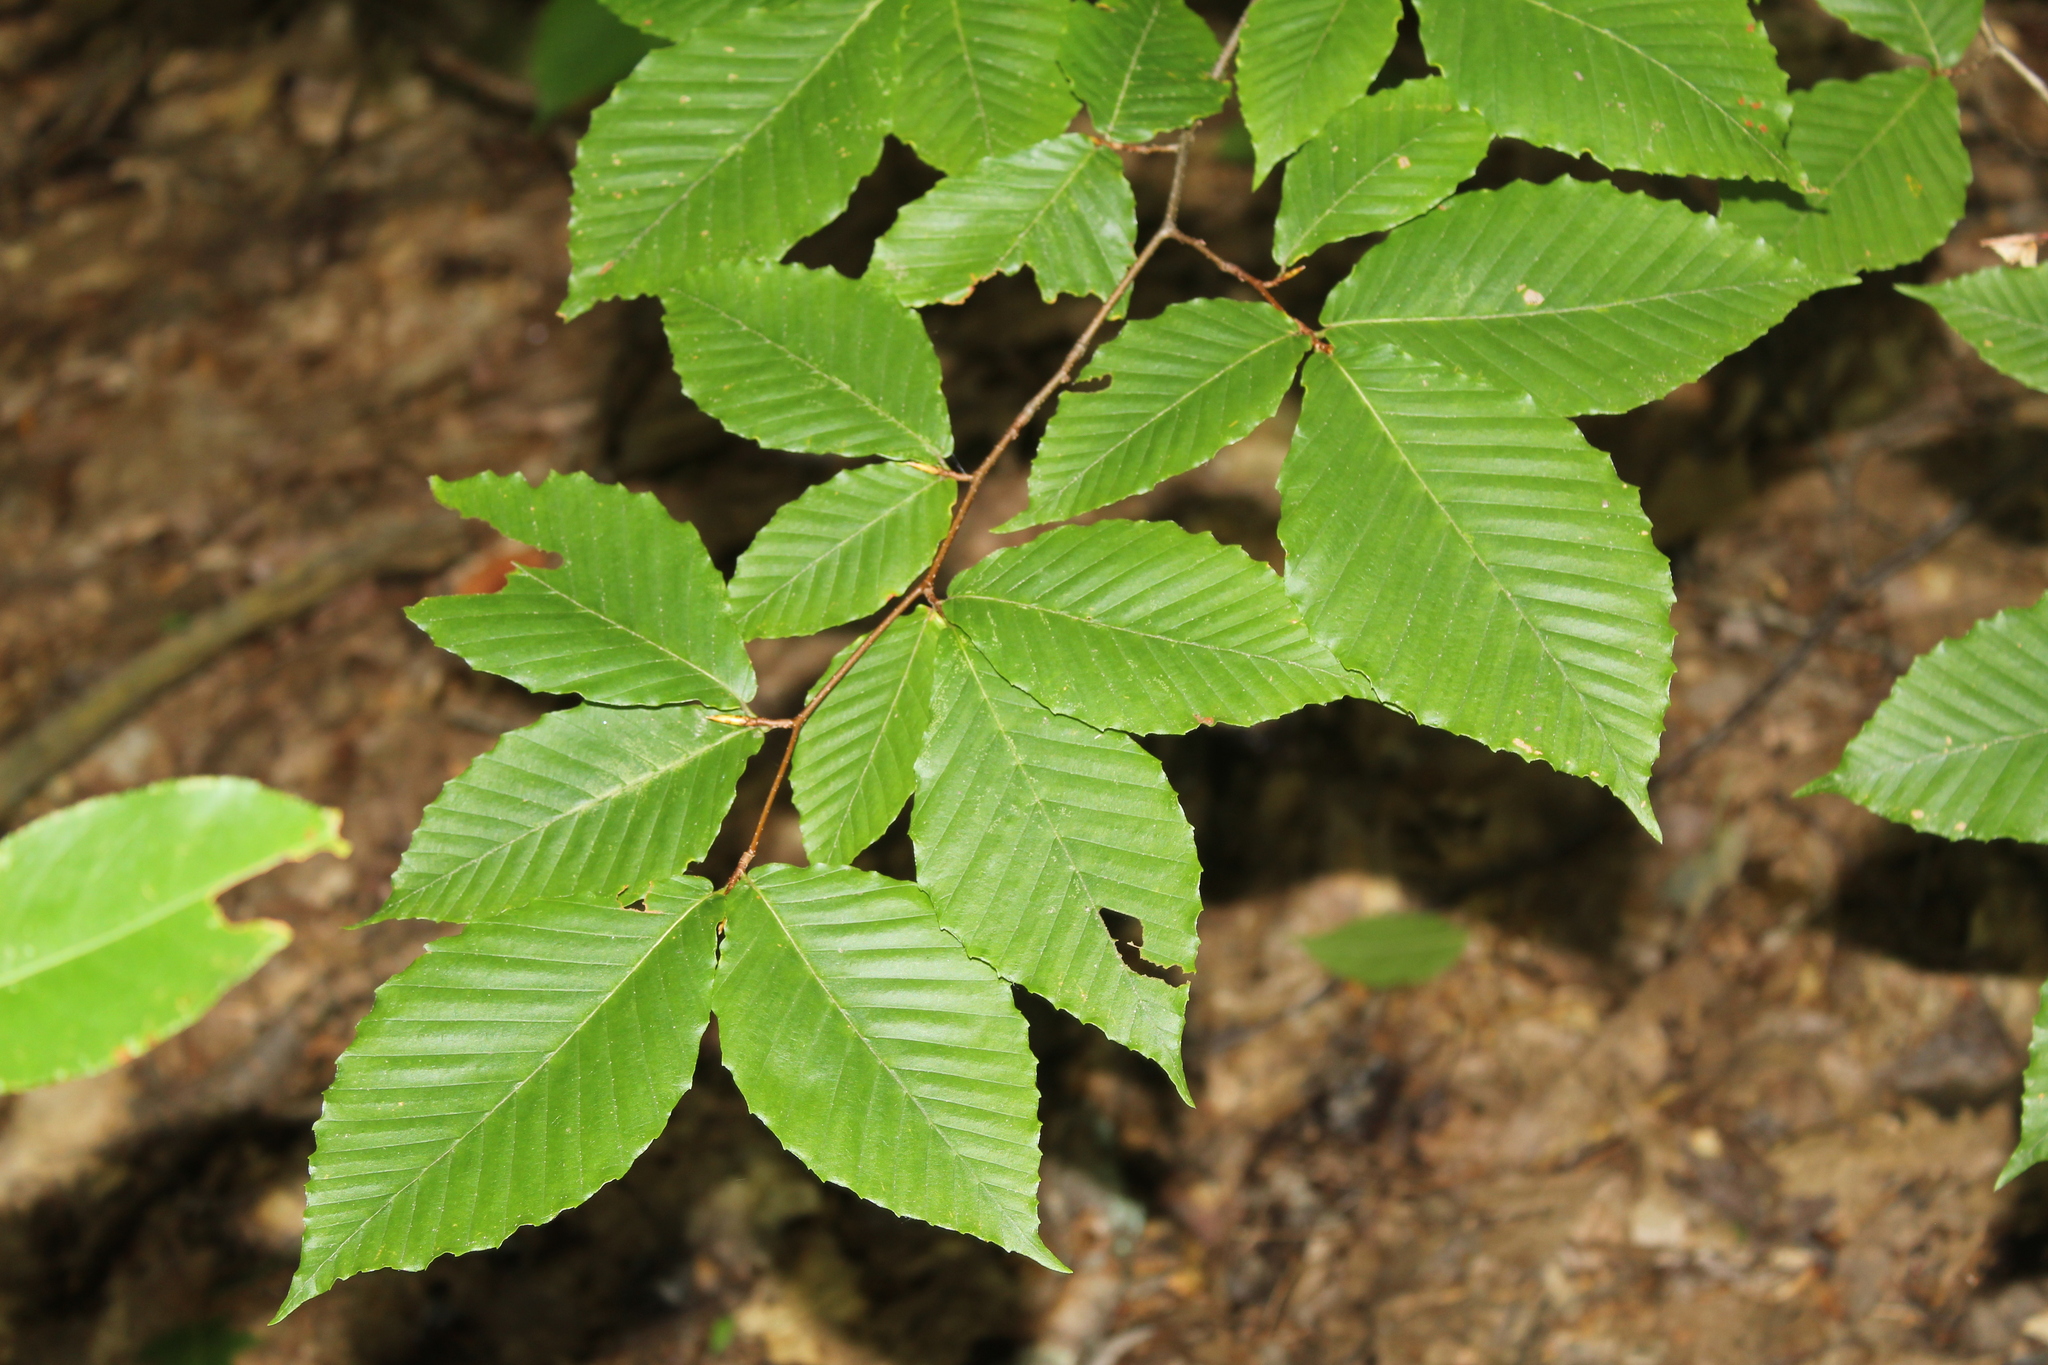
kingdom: Plantae
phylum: Tracheophyta
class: Magnoliopsida
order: Fagales
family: Fagaceae
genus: Fagus
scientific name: Fagus grandifolia
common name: American beech
